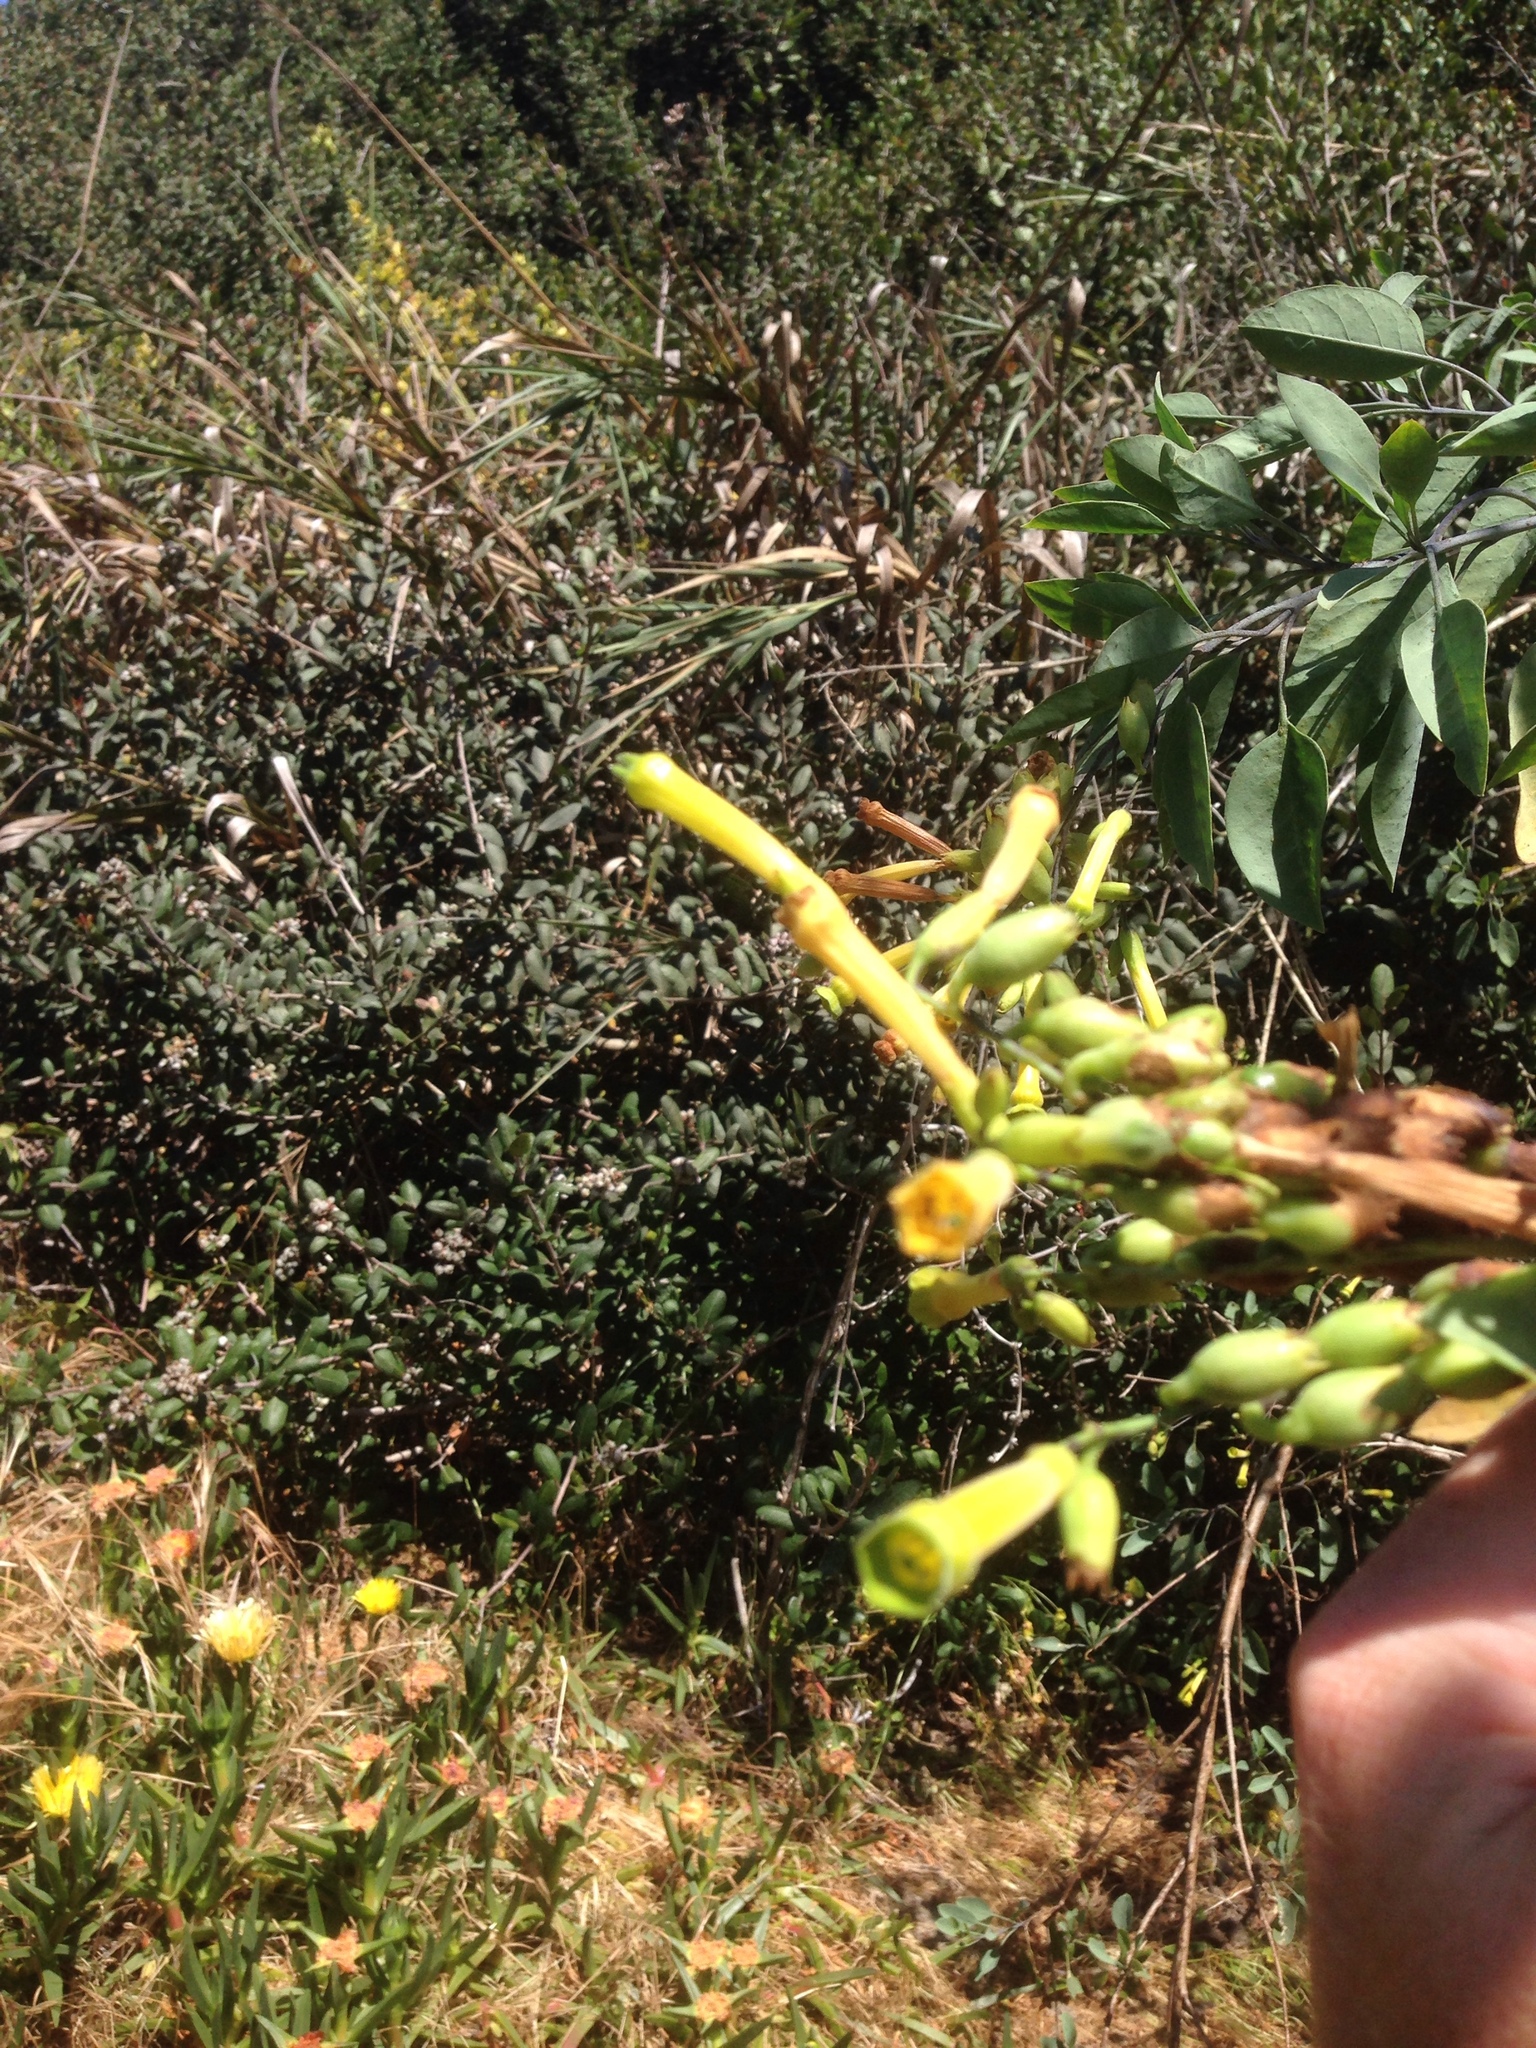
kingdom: Plantae
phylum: Tracheophyta
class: Magnoliopsida
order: Solanales
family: Solanaceae
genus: Nicotiana
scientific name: Nicotiana glauca
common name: Tree tobacco
